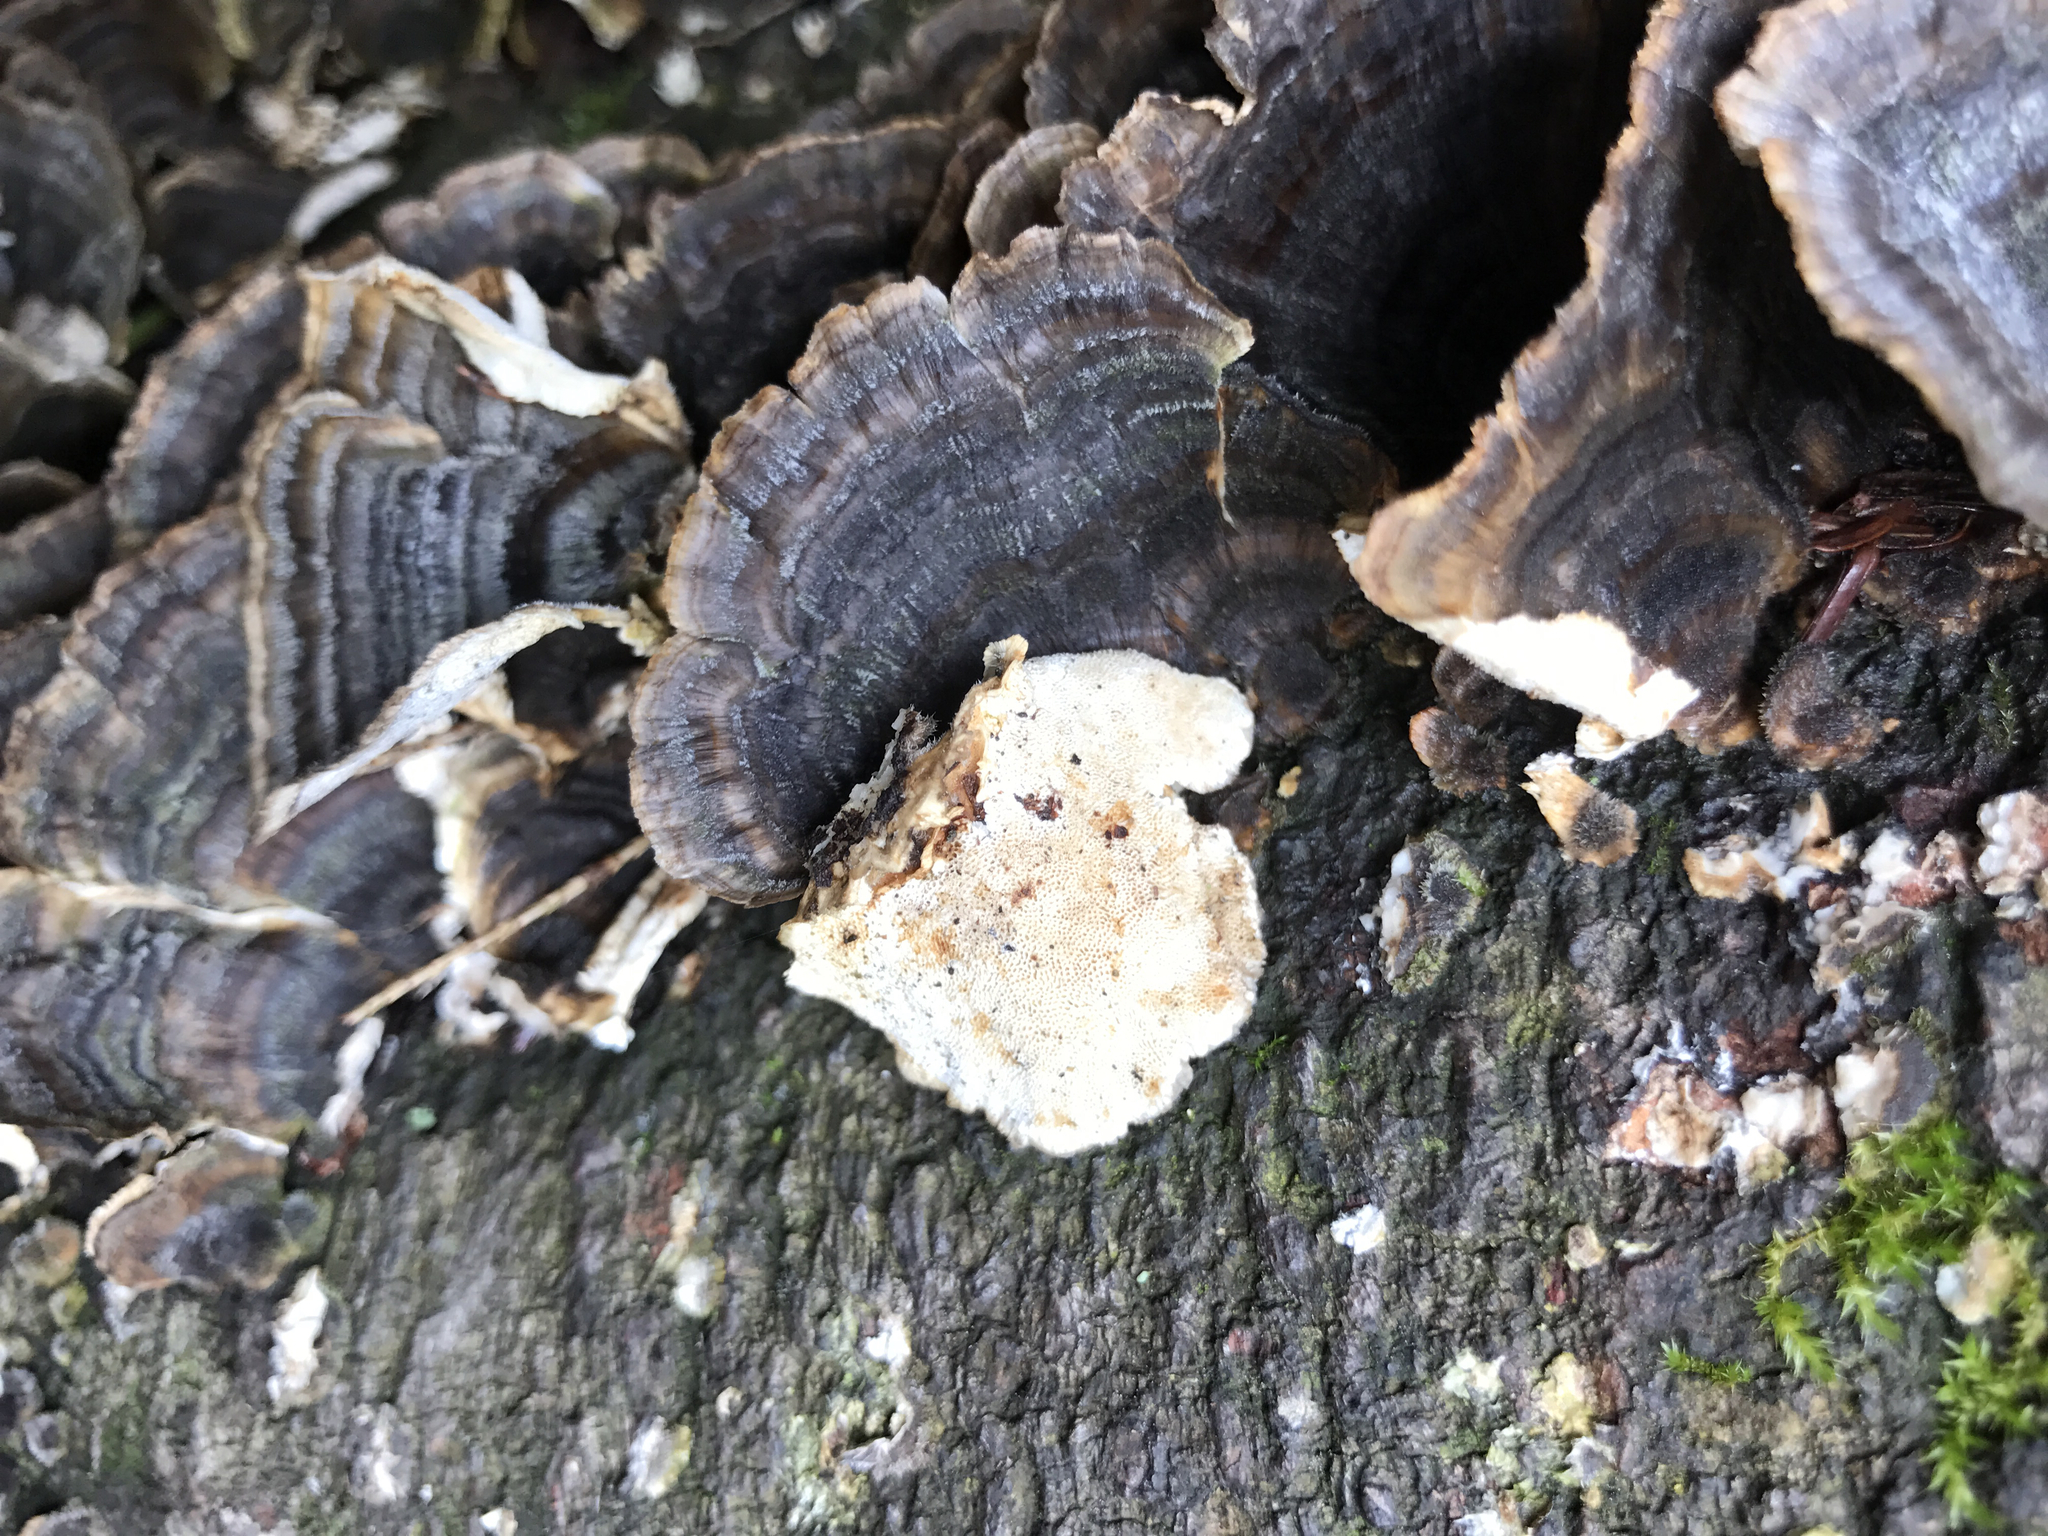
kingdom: Fungi
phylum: Basidiomycota
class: Agaricomycetes
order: Polyporales
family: Polyporaceae
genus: Trametes
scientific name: Trametes versicolor
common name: Turkeytail
